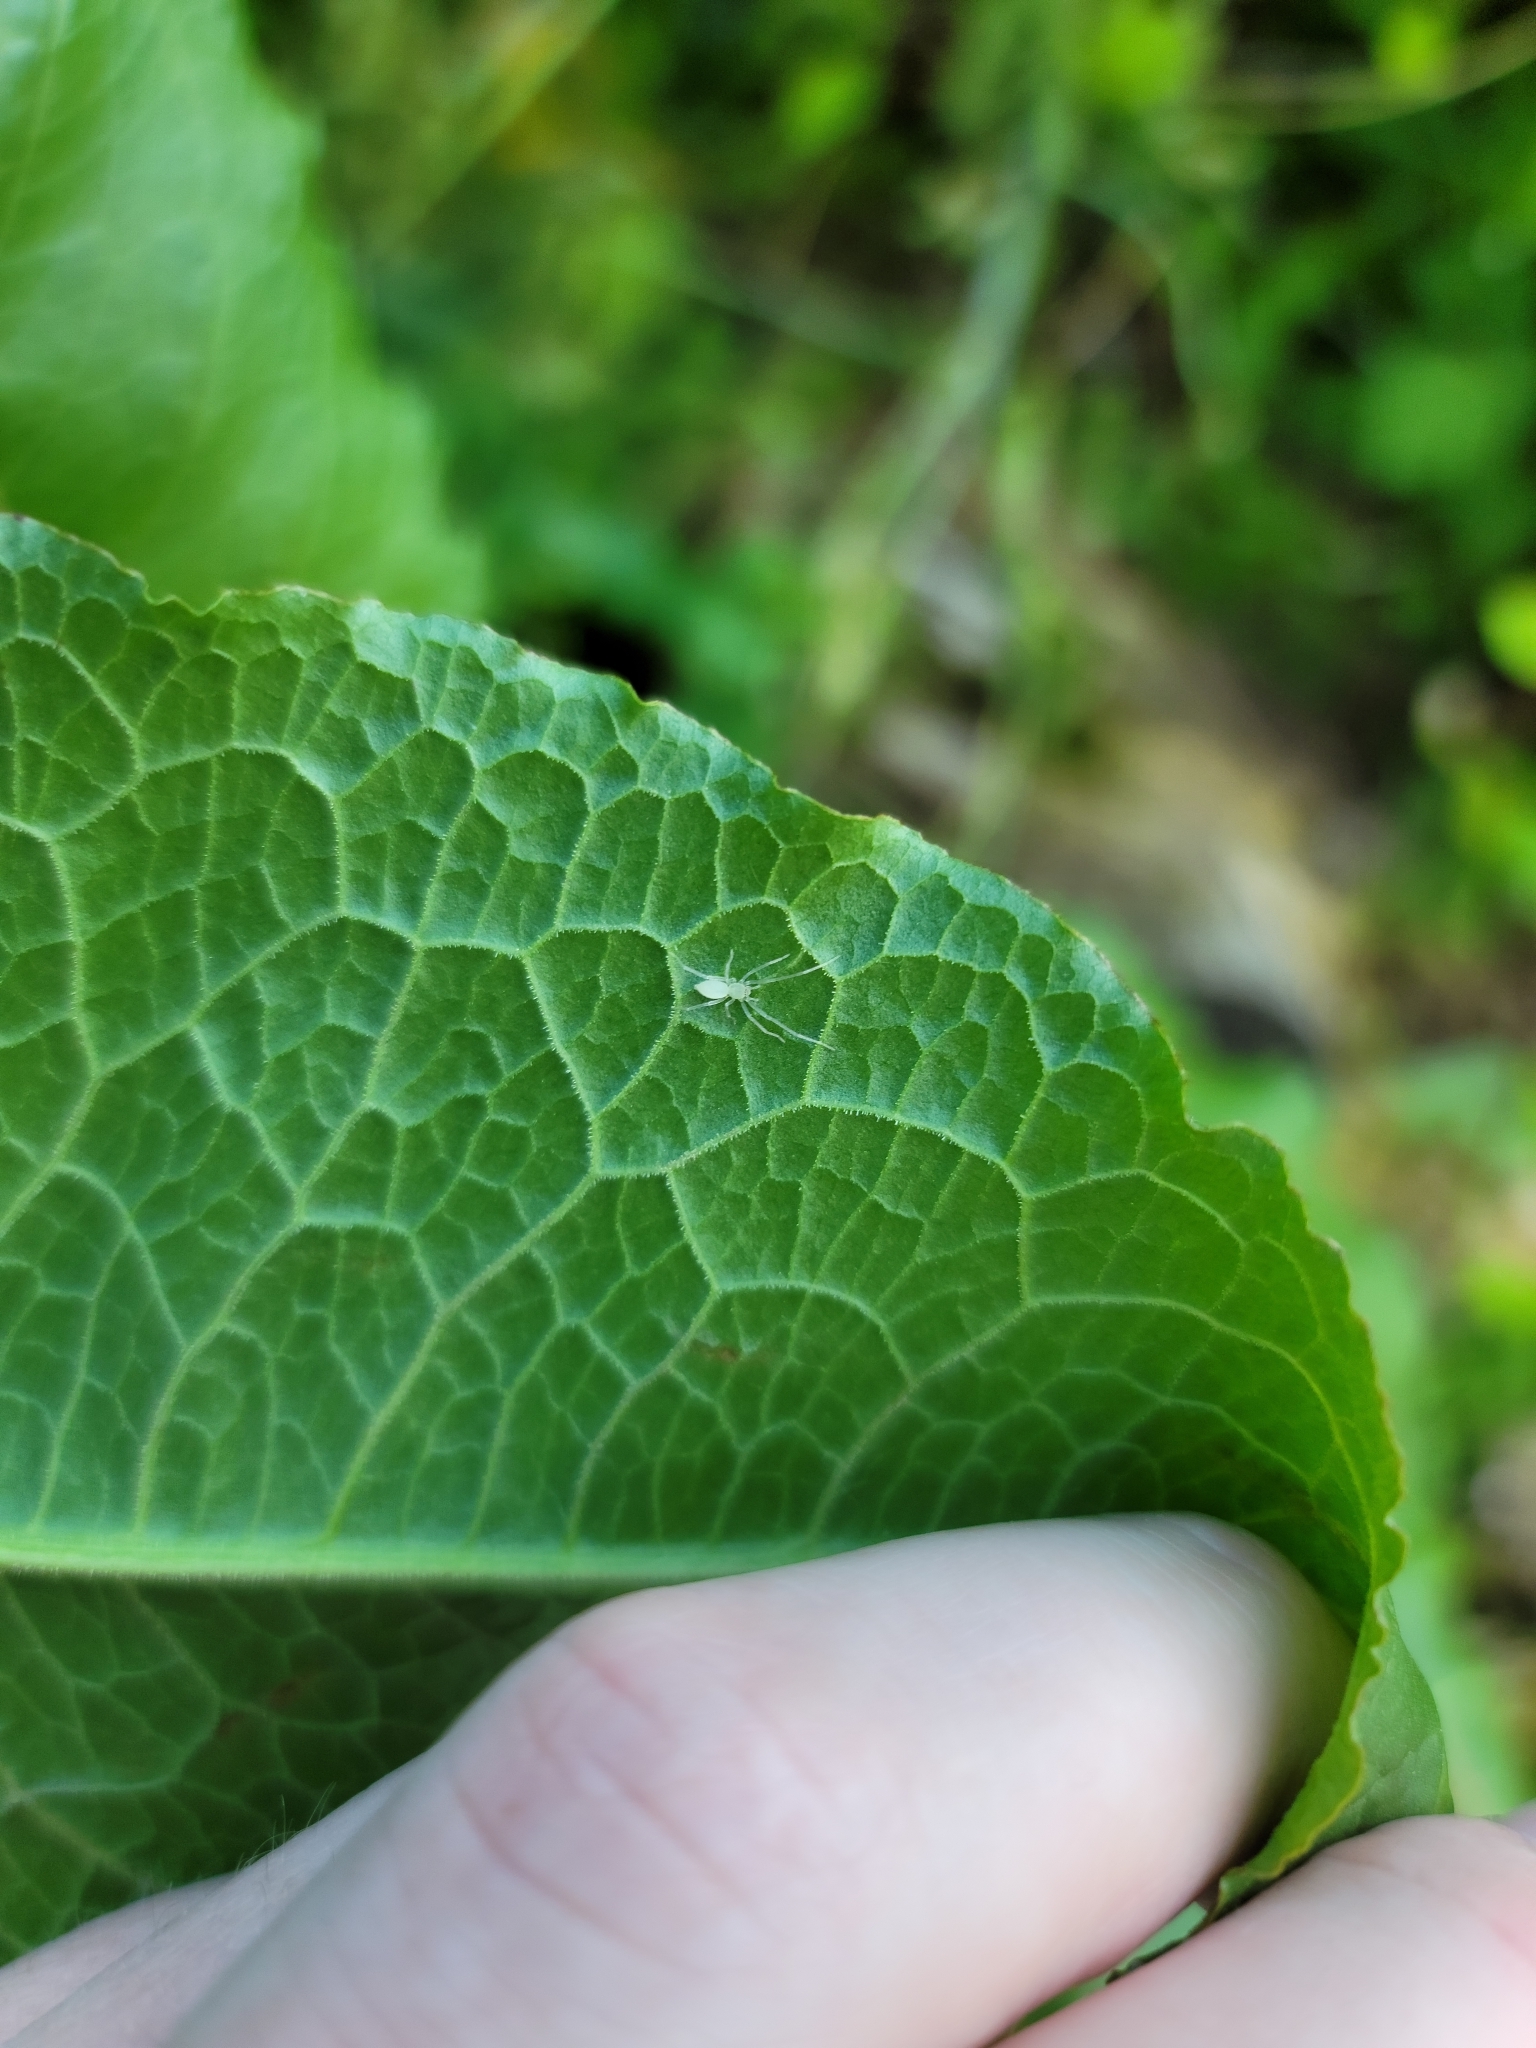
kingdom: Animalia
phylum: Arthropoda
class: Arachnida
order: Araneae
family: Anyphaenidae
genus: Wulfila
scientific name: Wulfila albens
